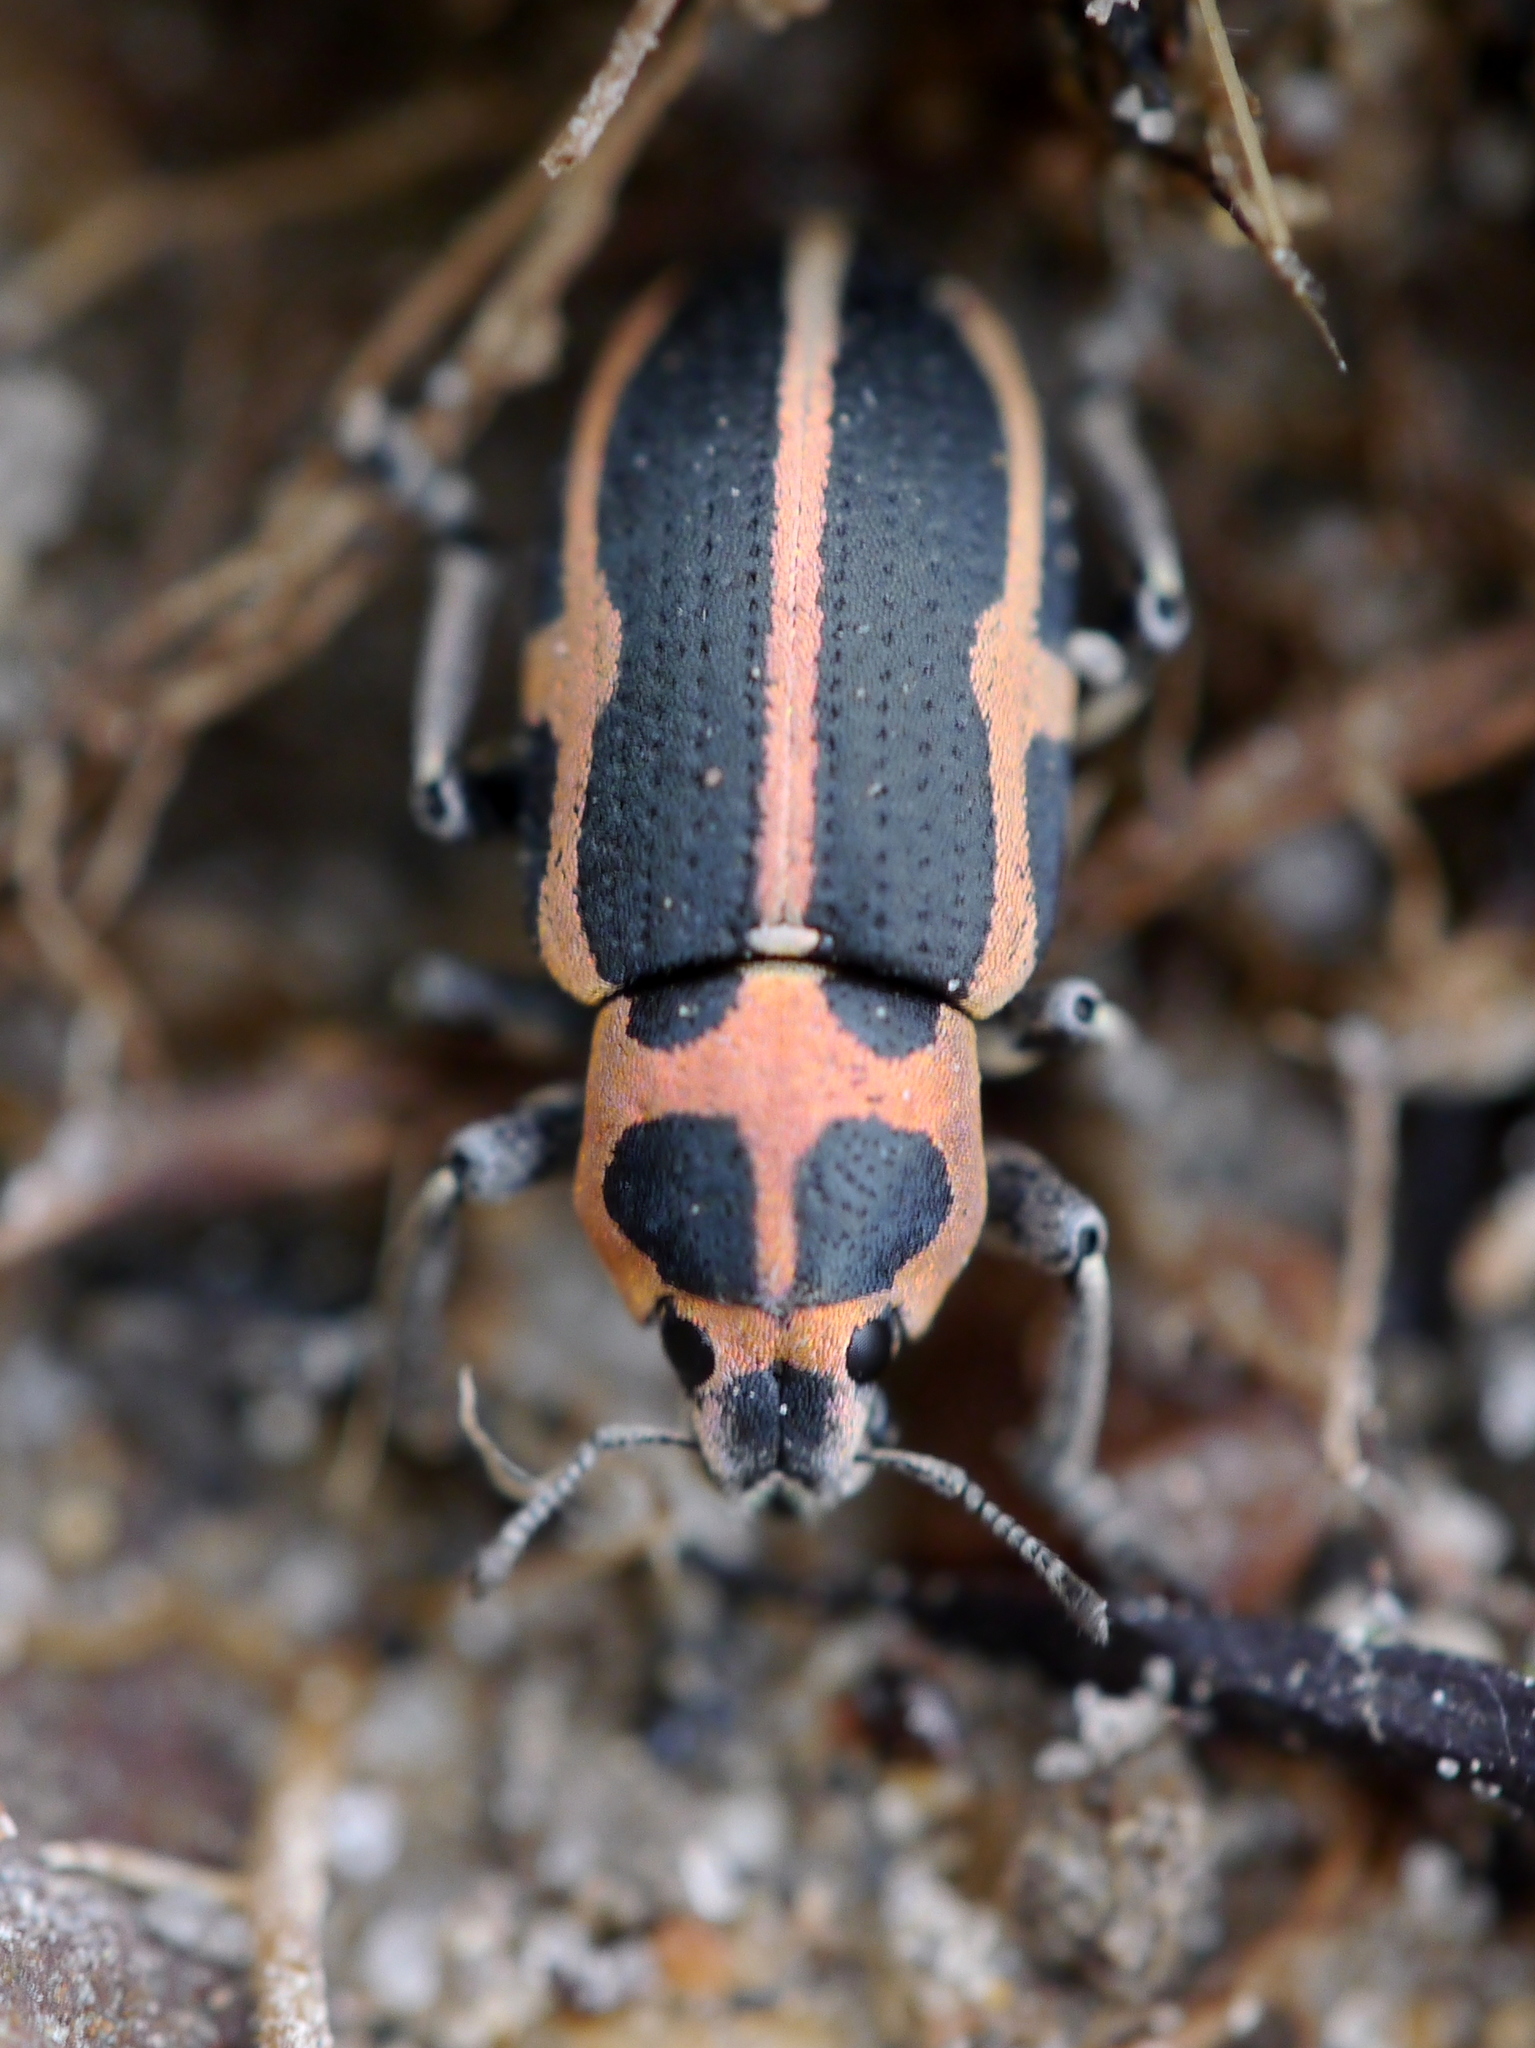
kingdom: Animalia
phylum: Arthropoda
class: Insecta
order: Coleoptera
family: Curculionidae
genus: Eudiagogus
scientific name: Eudiagogus pulcher
